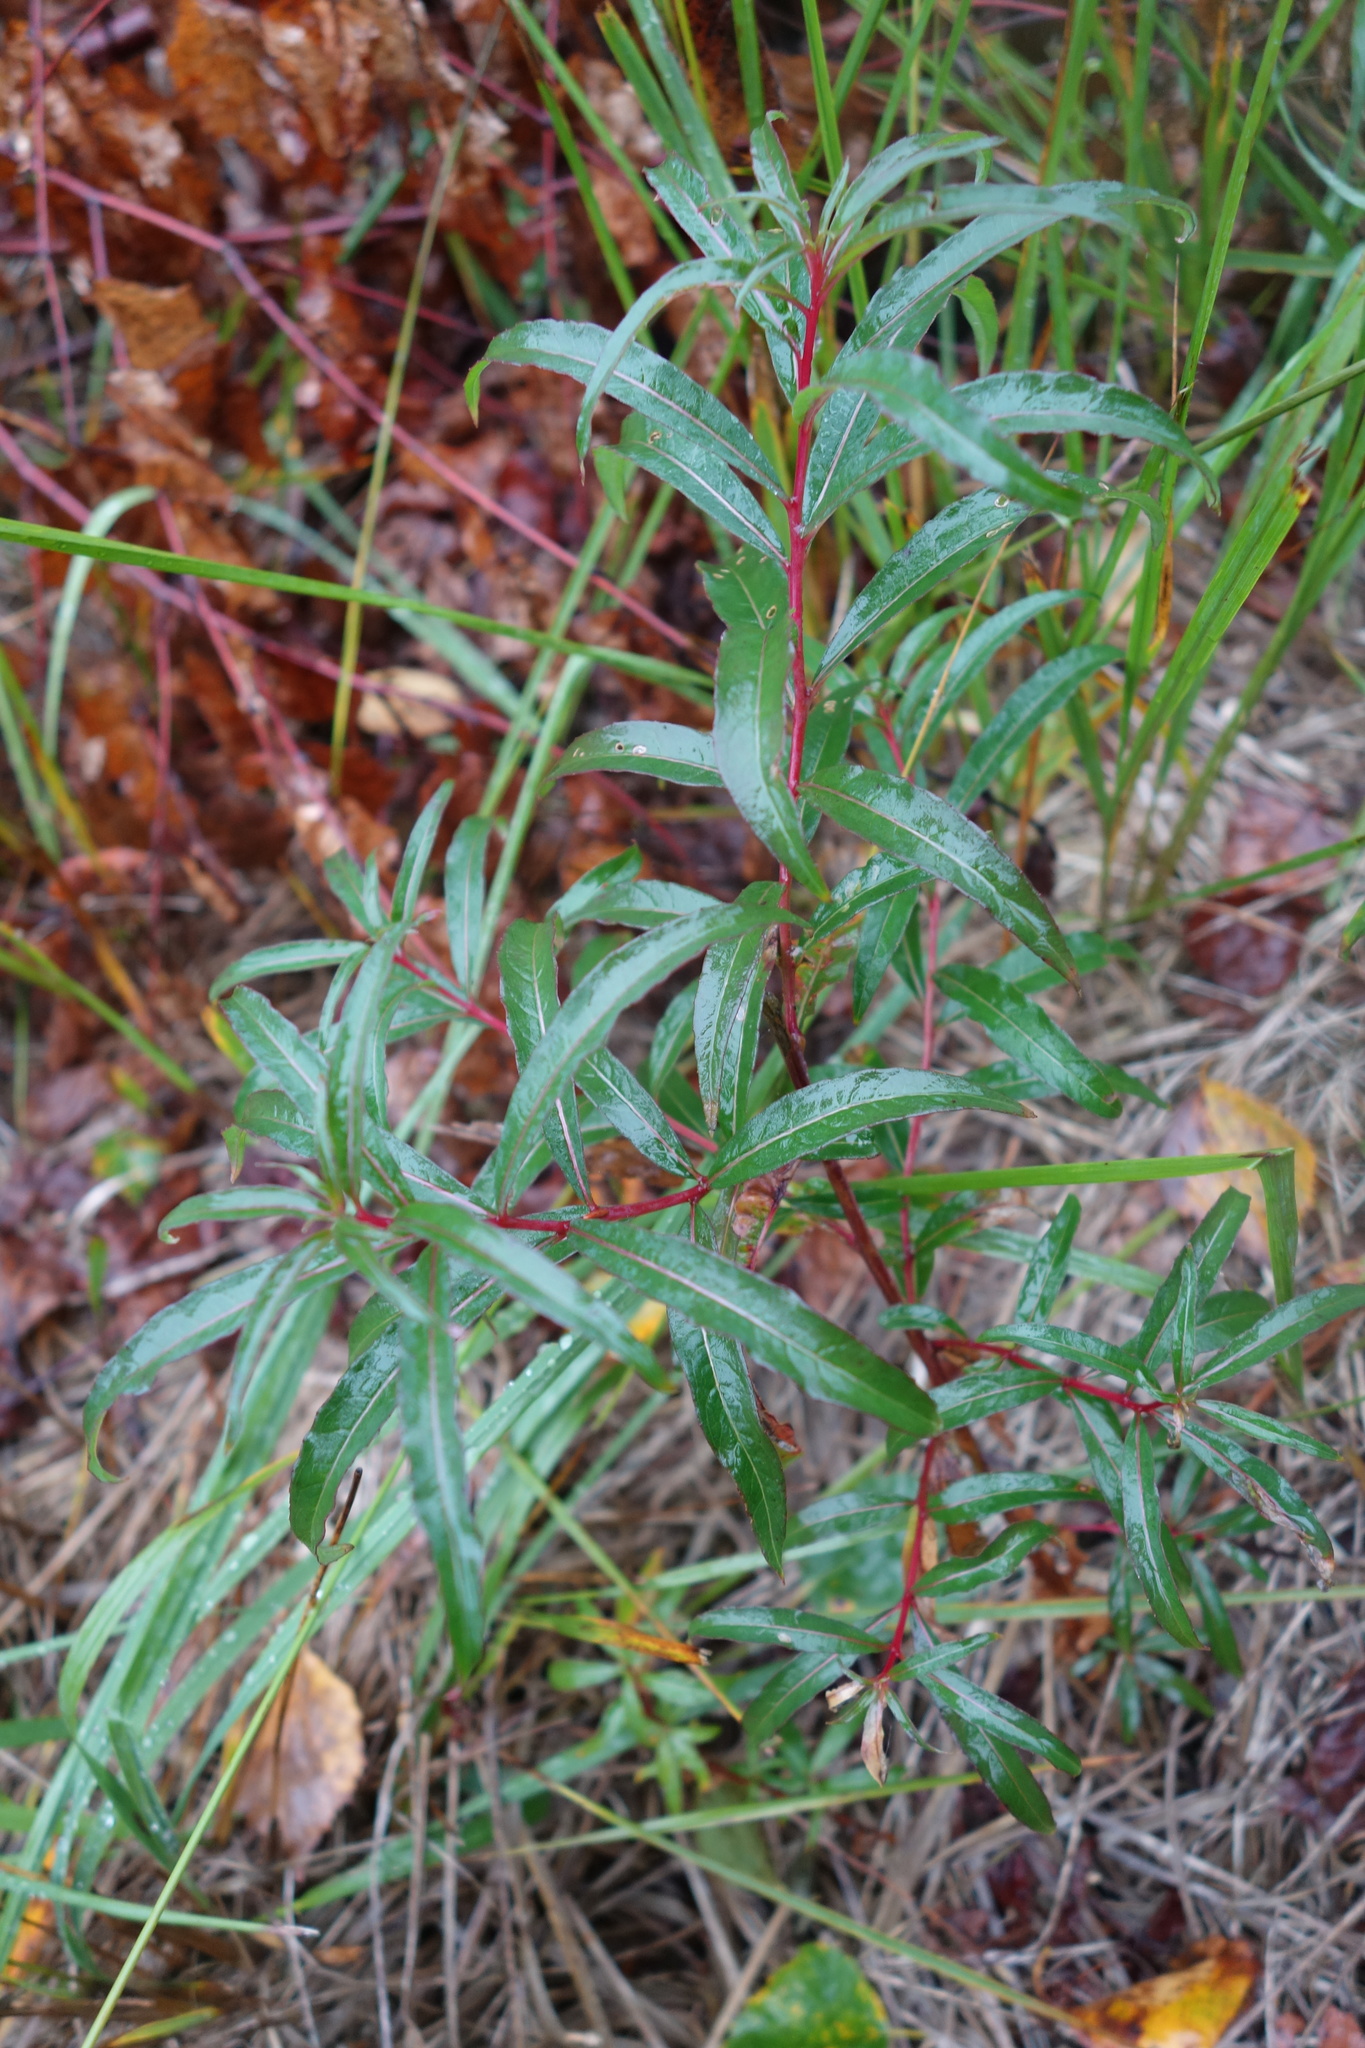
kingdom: Plantae
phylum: Tracheophyta
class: Magnoliopsida
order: Myrtales
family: Onagraceae
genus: Chamaenerion
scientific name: Chamaenerion angustifolium
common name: Fireweed
